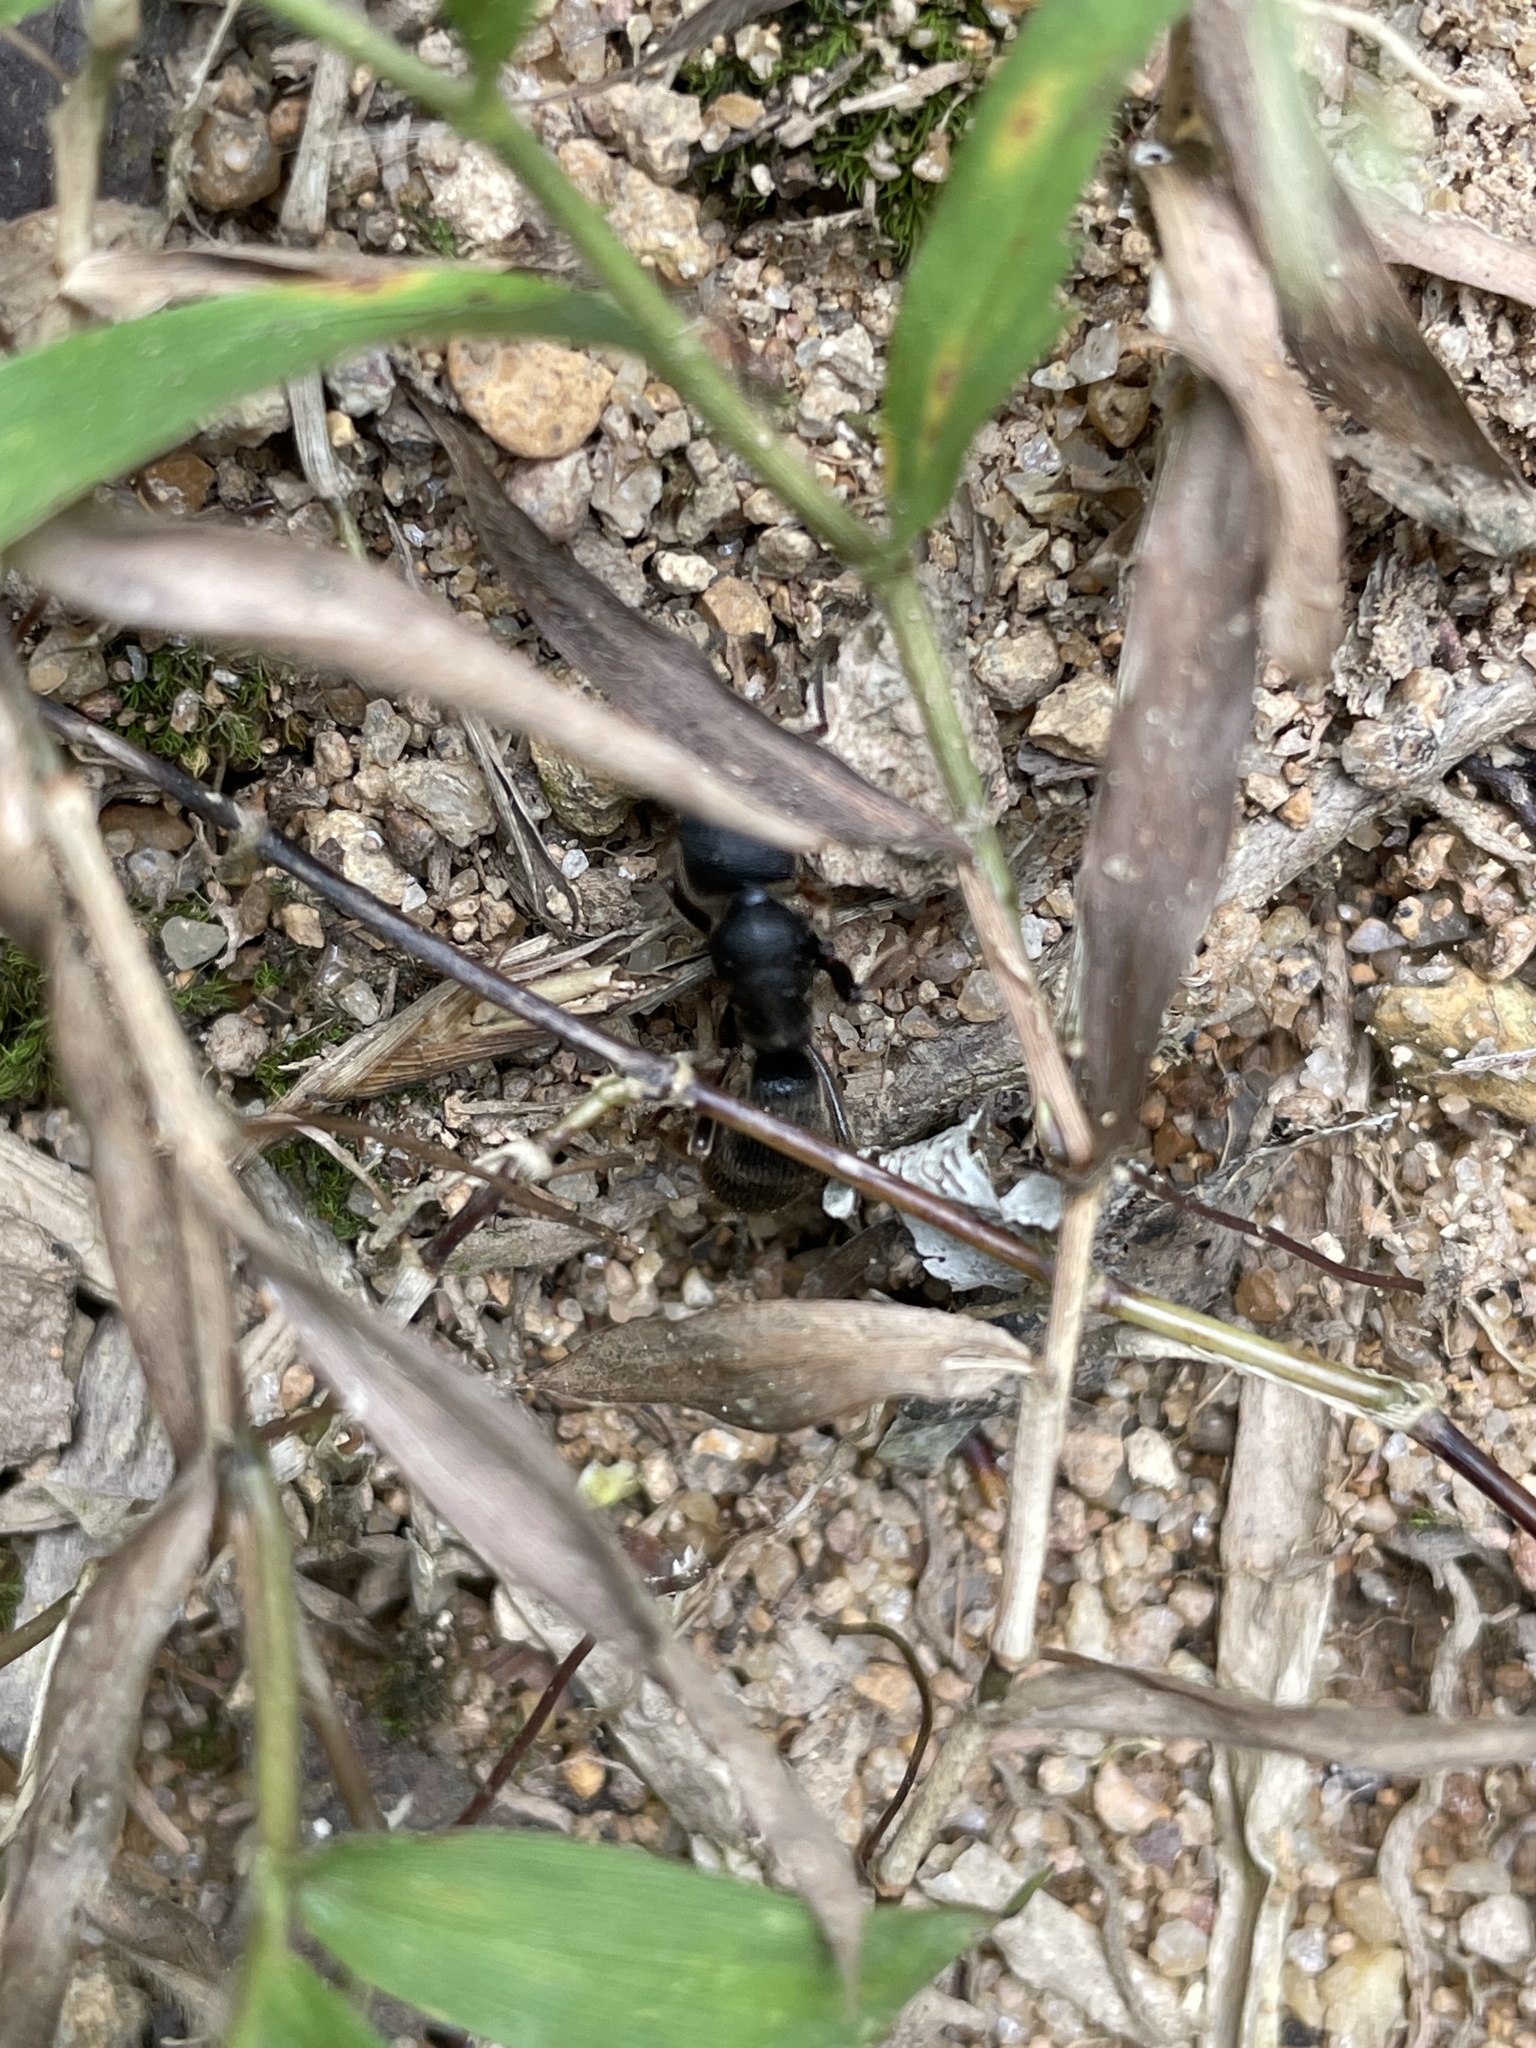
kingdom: Animalia
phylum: Arthropoda
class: Insecta
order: Hymenoptera
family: Formicidae
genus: Pseudoneoponera
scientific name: Pseudoneoponera rufipes
